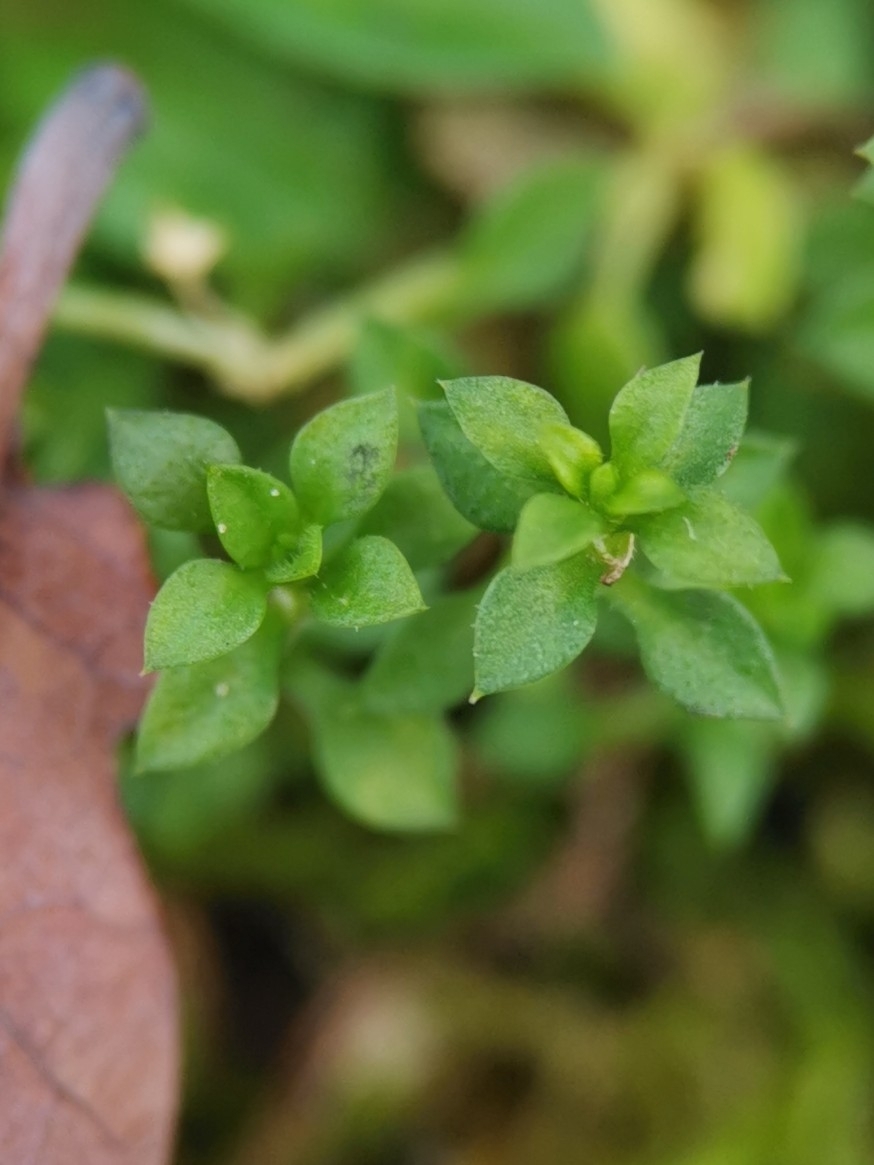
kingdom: Plantae
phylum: Tracheophyta
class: Magnoliopsida
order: Caryophyllales
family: Caryophyllaceae
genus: Arenaria
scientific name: Arenaria serpyllifolia
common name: Thyme-leaved sandwort
